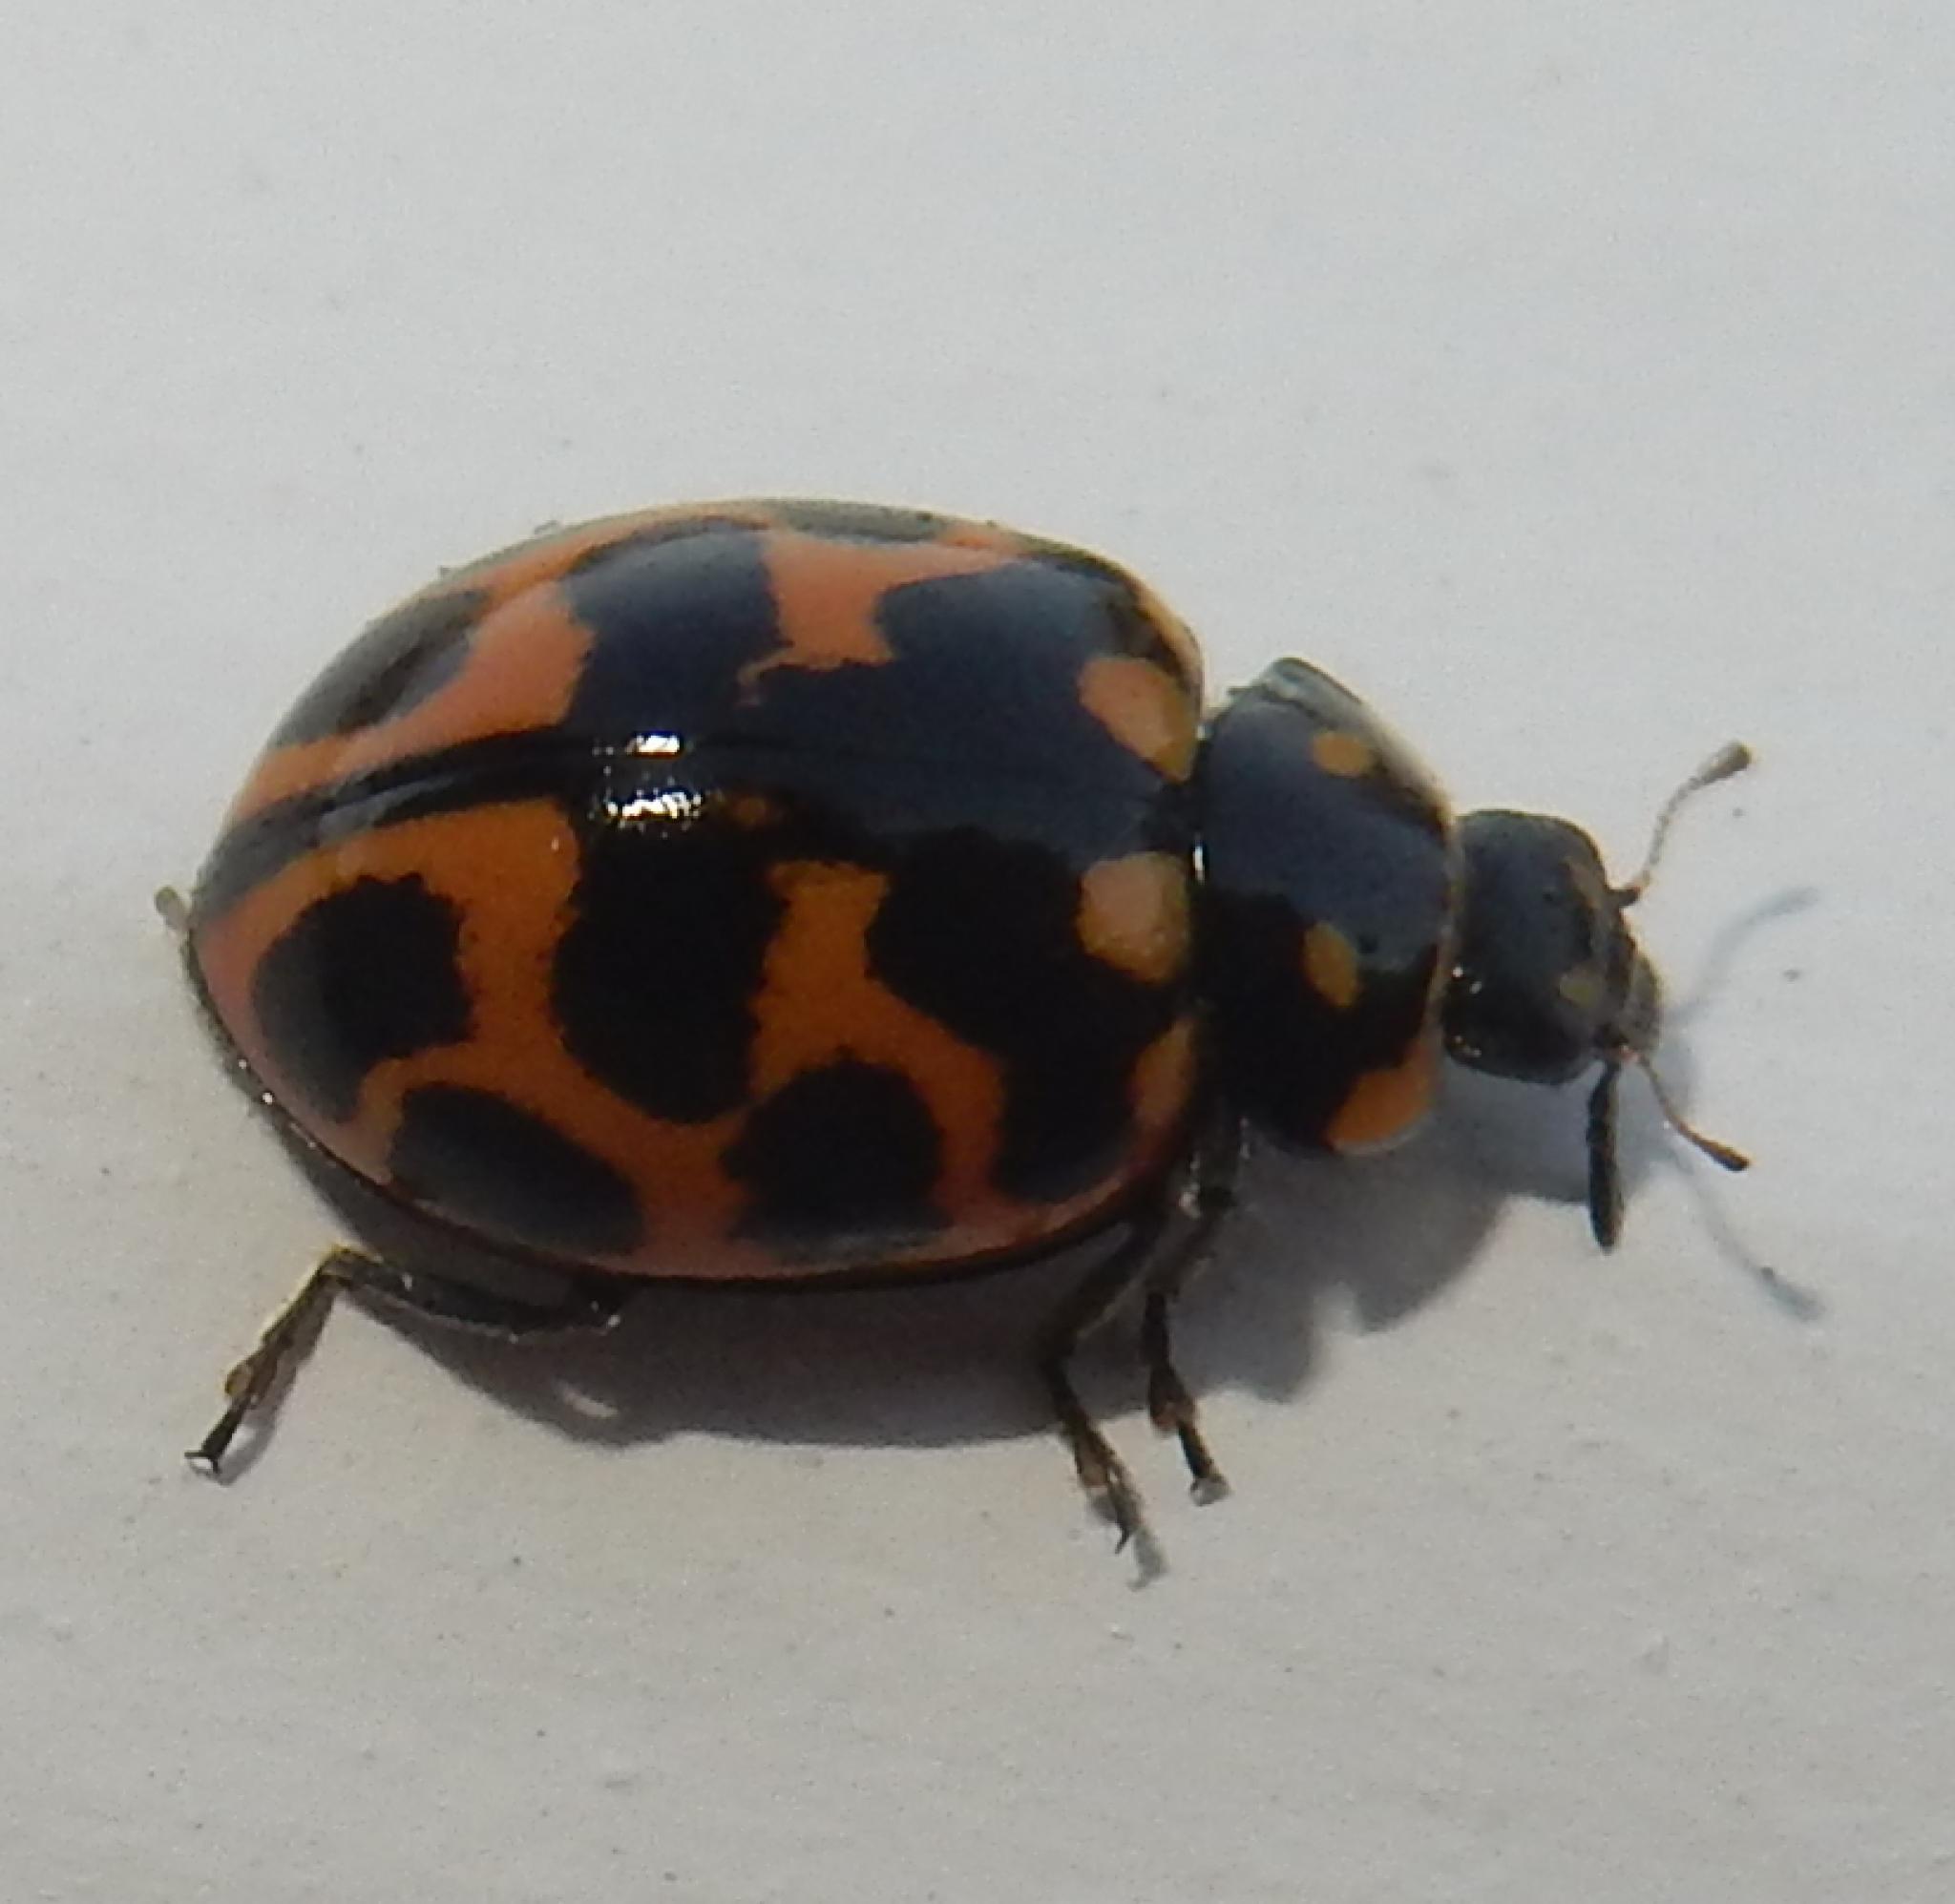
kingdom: Animalia
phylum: Arthropoda
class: Insecta
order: Coleoptera
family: Coccinellidae
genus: Lioadalia
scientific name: Lioadalia flavomaculata
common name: Ladybird beetle
